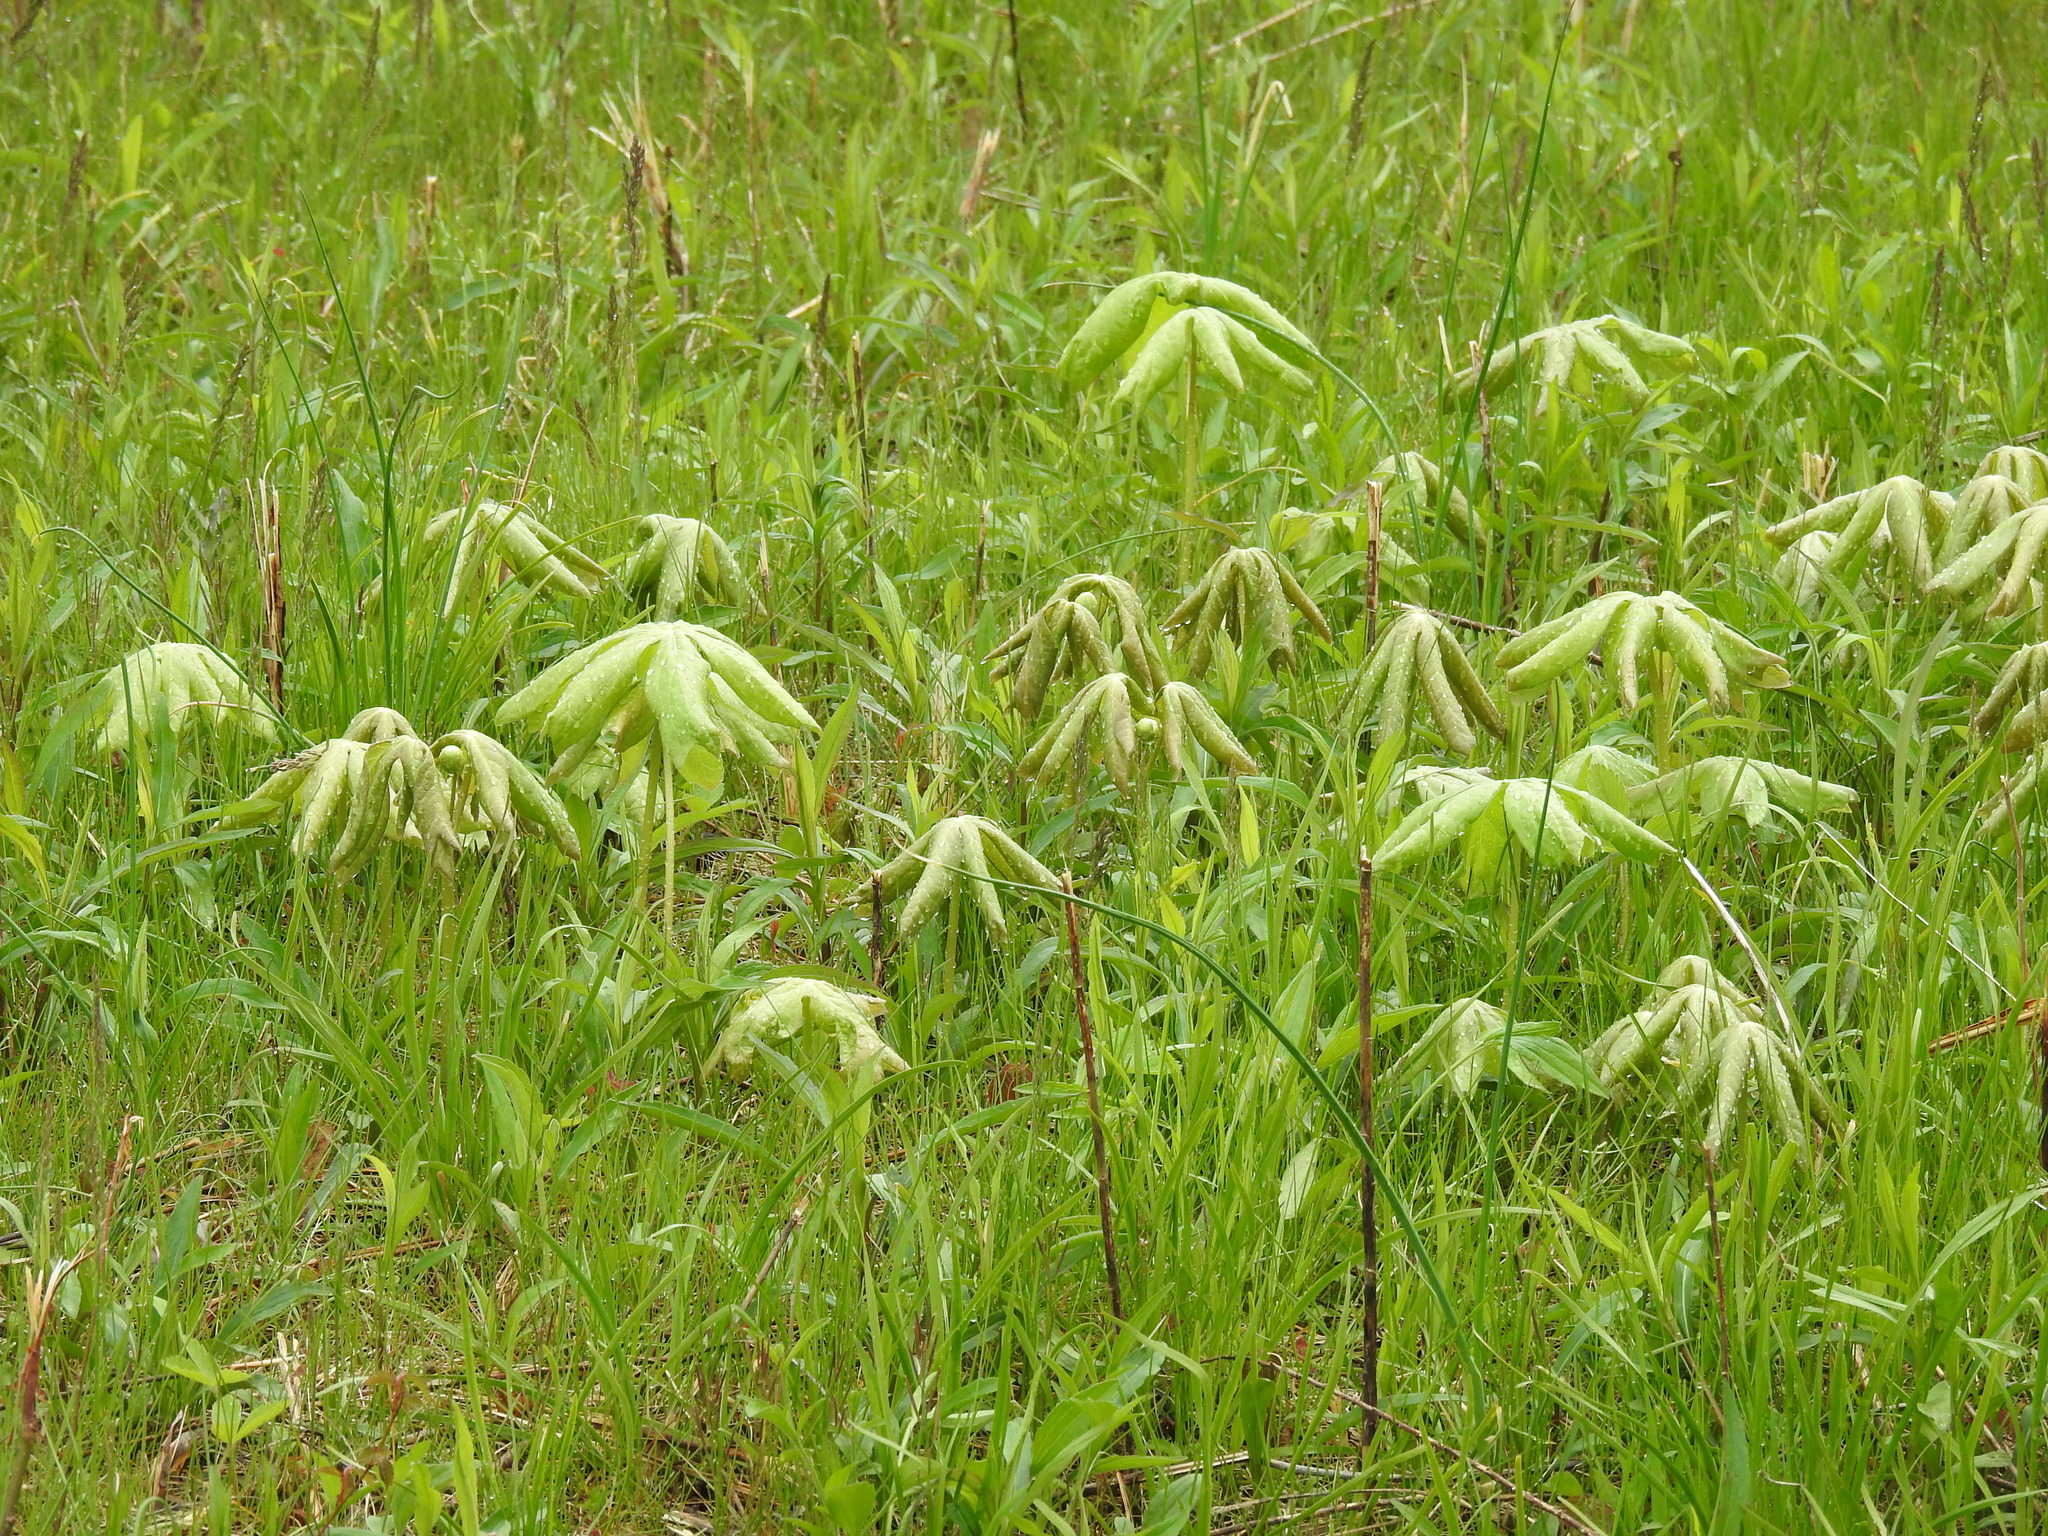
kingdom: Plantae
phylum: Tracheophyta
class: Magnoliopsida
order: Ranunculales
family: Berberidaceae
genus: Podophyllum
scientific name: Podophyllum peltatum
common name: Wild mandrake
